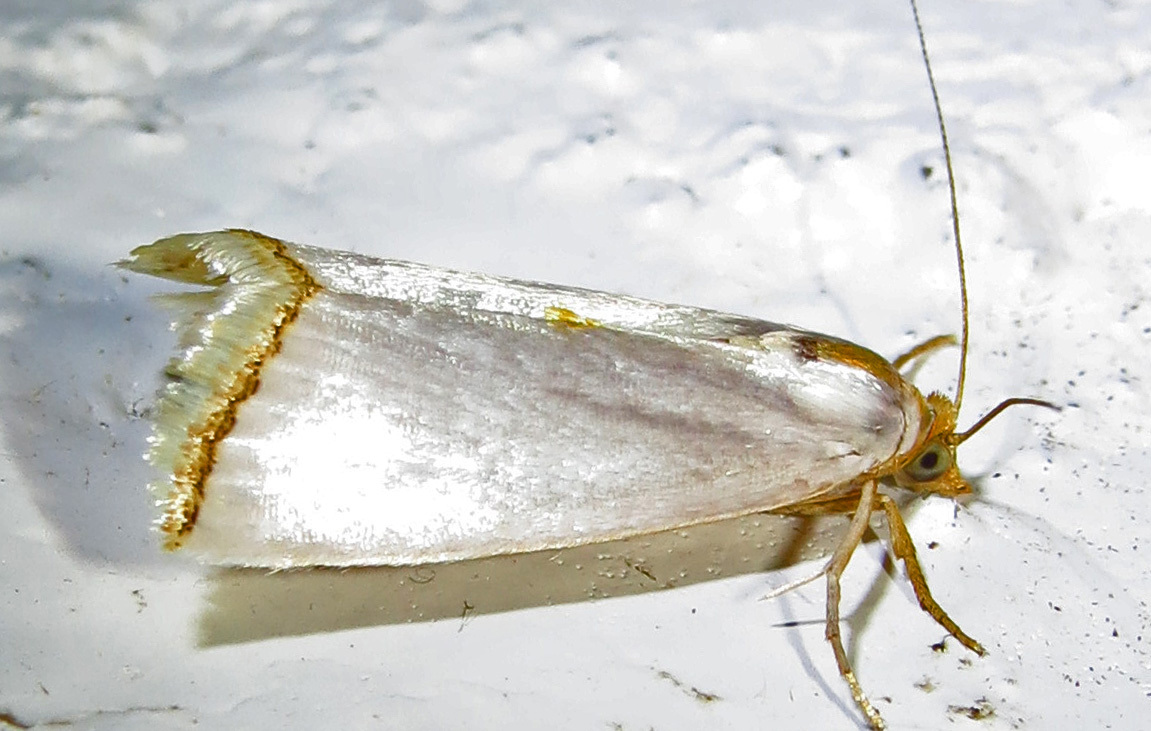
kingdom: Animalia
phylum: Arthropoda
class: Insecta
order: Lepidoptera
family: Crambidae
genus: Argyria
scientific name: Argyria nivalis
